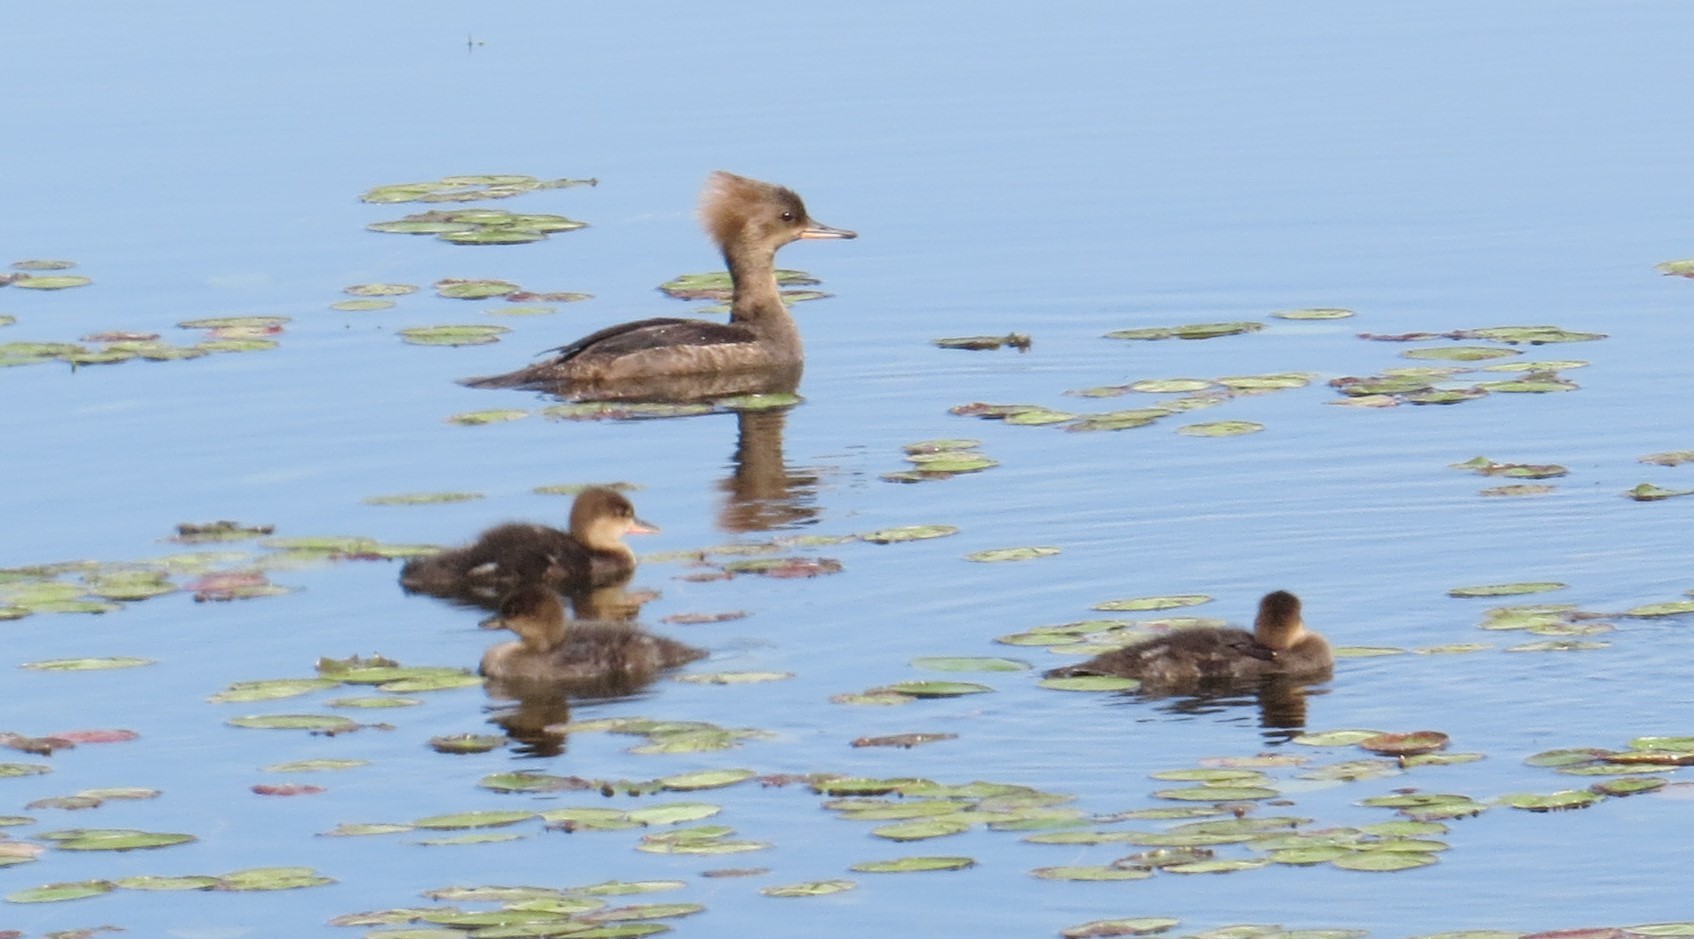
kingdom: Animalia
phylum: Chordata
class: Aves
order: Anseriformes
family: Anatidae
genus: Lophodytes
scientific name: Lophodytes cucullatus
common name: Hooded merganser
